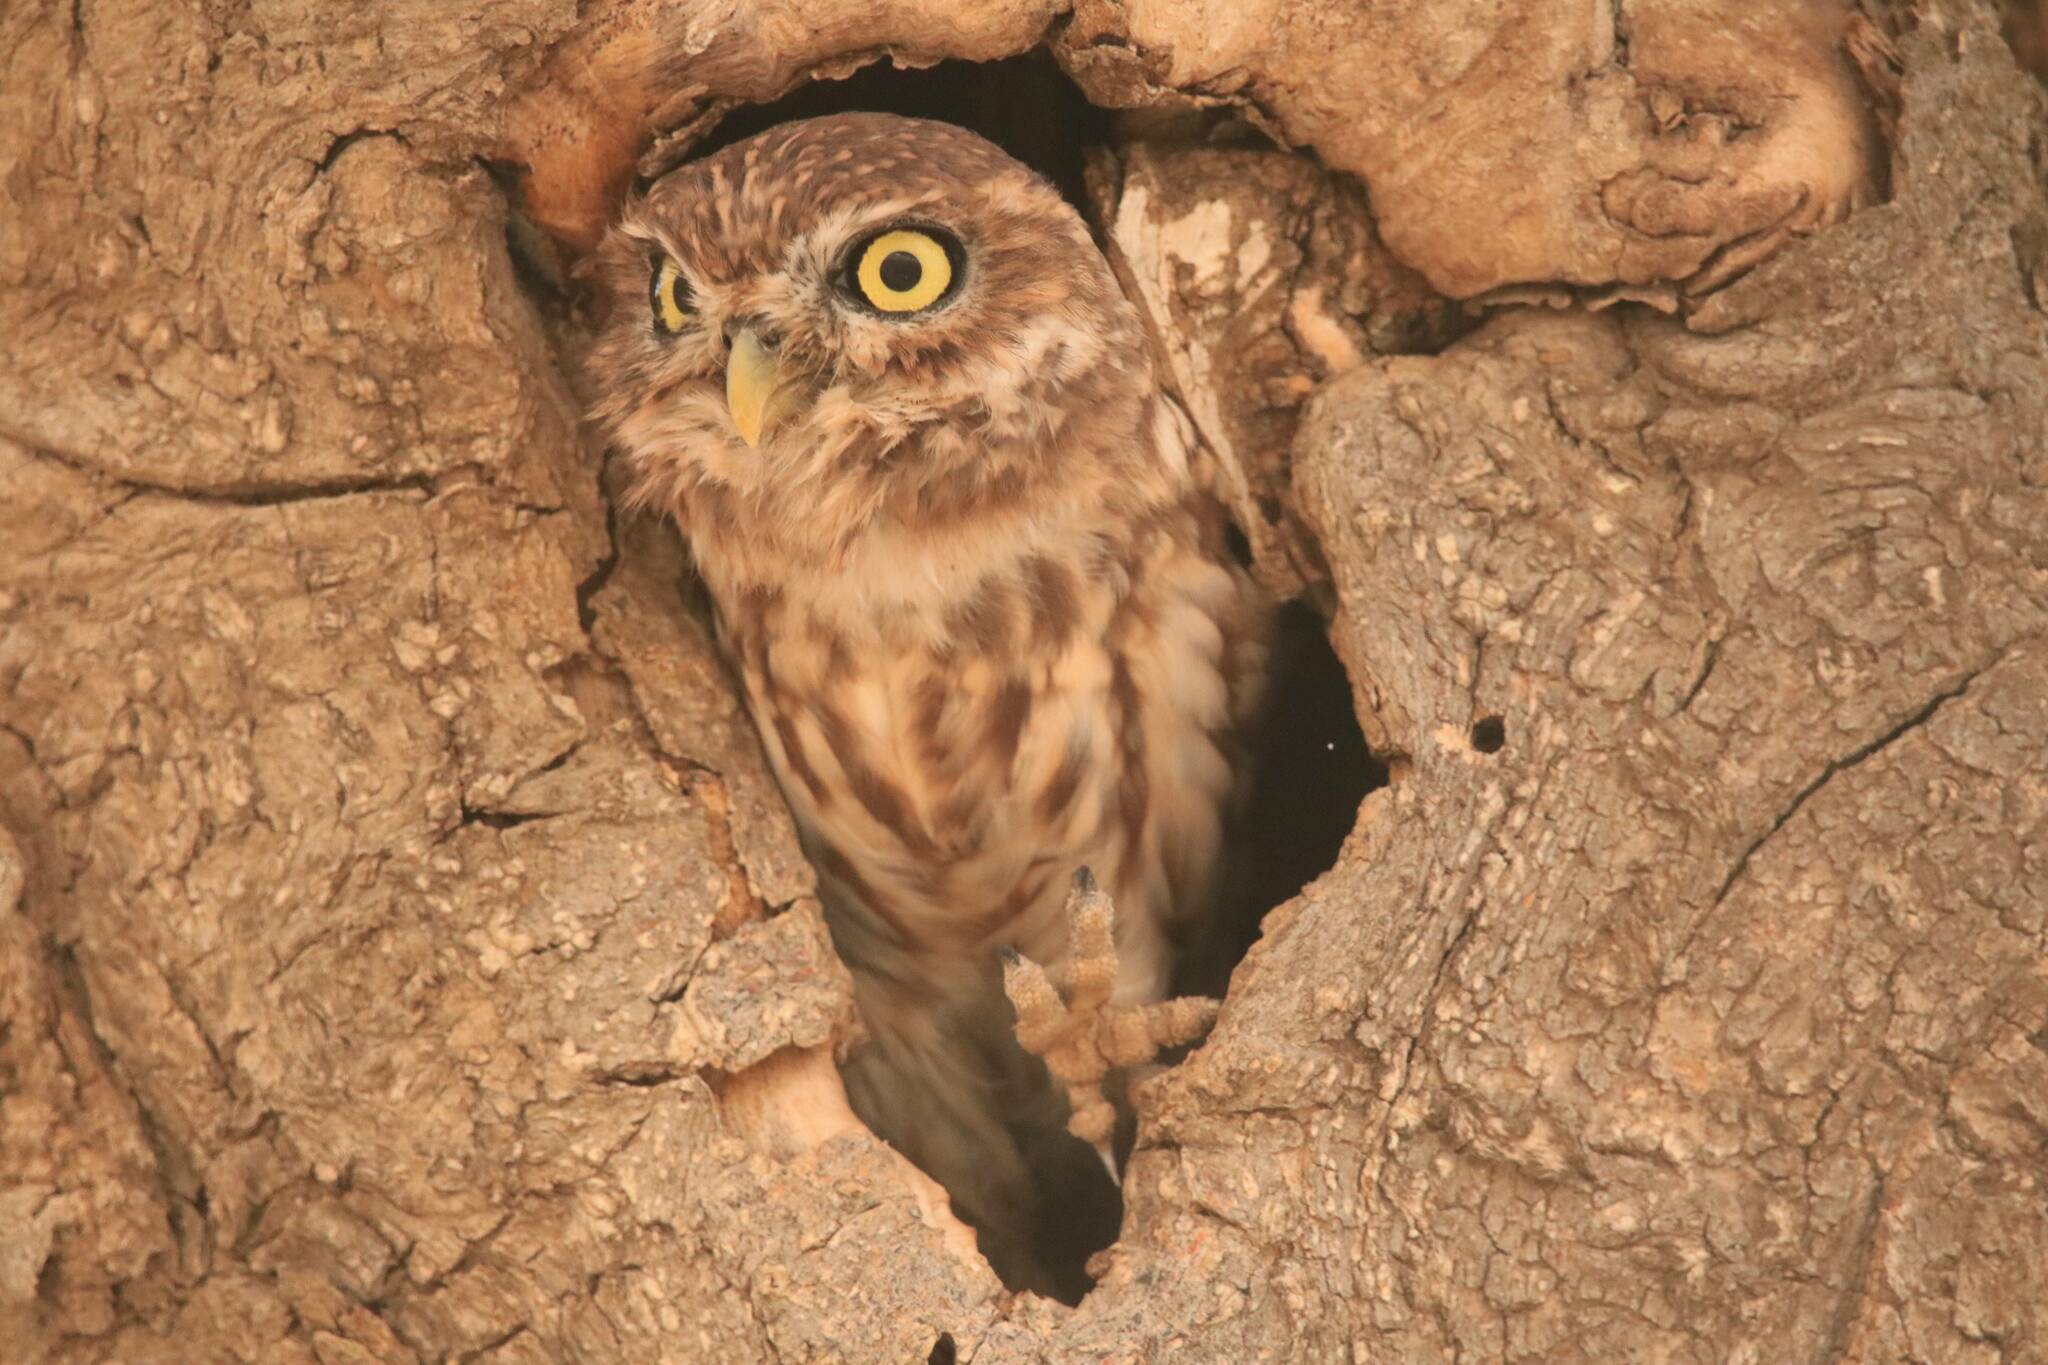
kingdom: Animalia
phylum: Chordata
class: Aves
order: Strigiformes
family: Strigidae
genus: Athene
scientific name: Athene noctua
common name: Little owl
